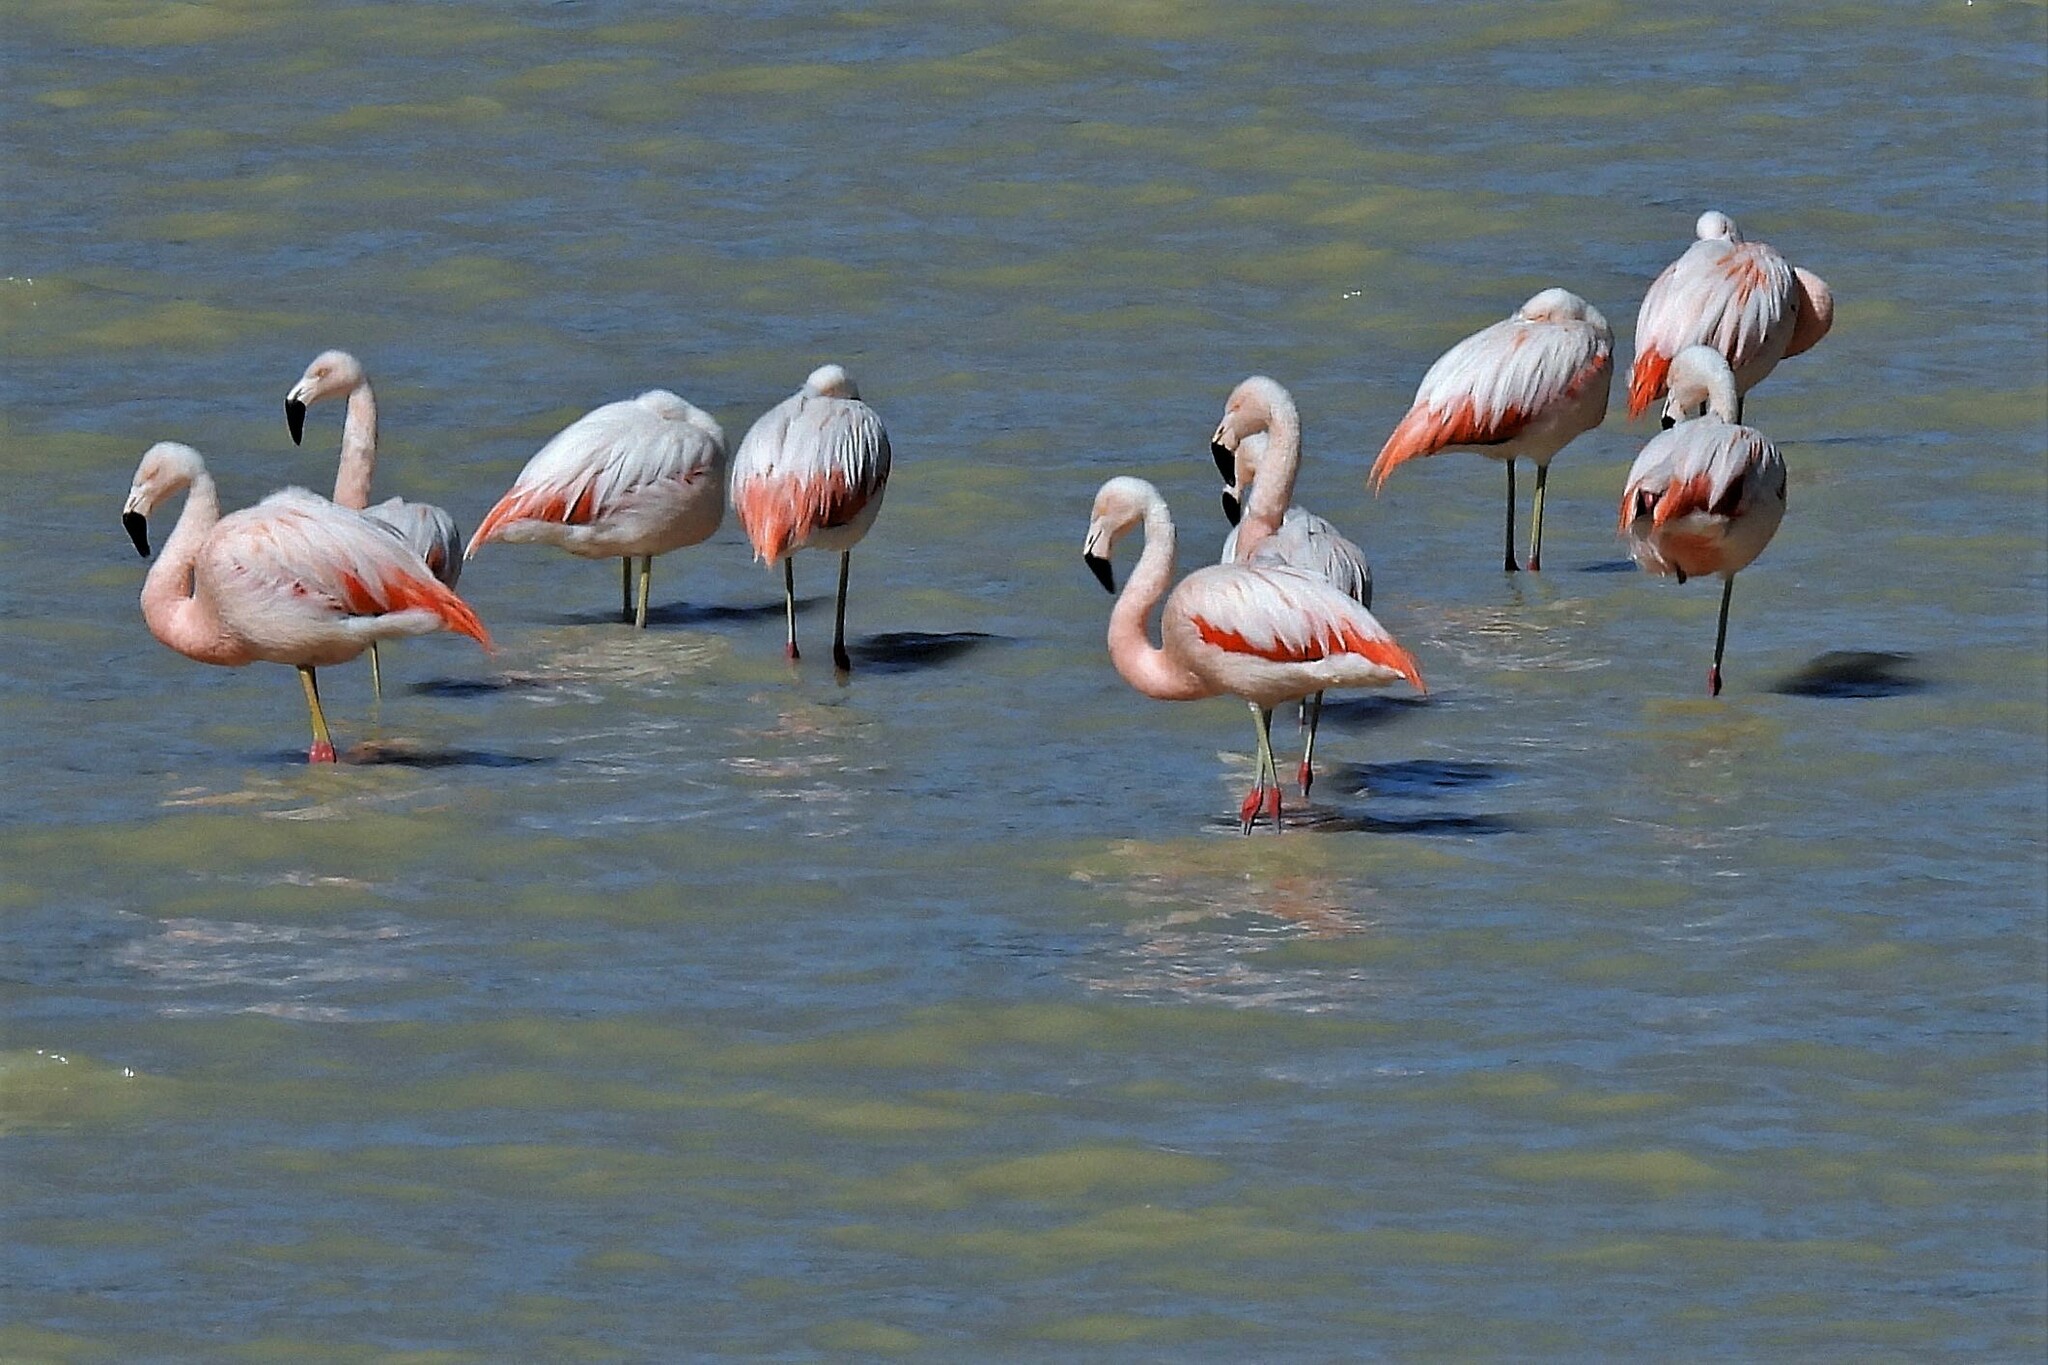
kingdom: Animalia
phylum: Chordata
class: Aves
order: Phoenicopteriformes
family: Phoenicopteridae
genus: Phoenicopterus
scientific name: Phoenicopterus chilensis
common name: Chilean flamingo
